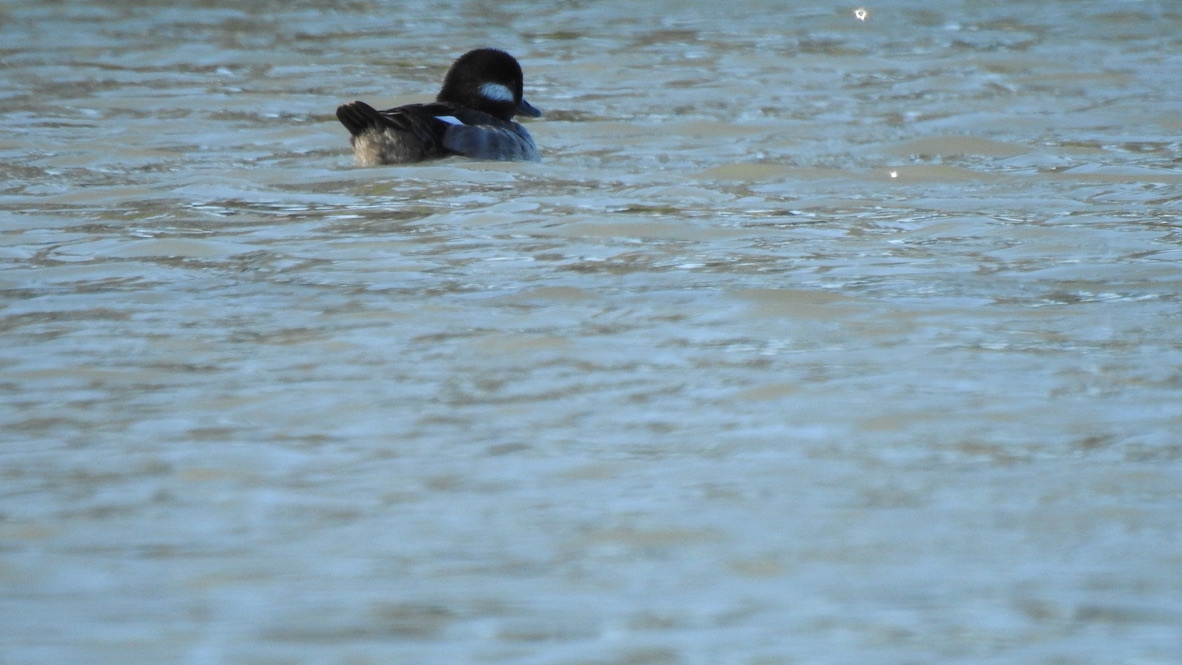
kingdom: Animalia
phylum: Chordata
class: Aves
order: Anseriformes
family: Anatidae
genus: Bucephala
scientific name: Bucephala albeola
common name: Bufflehead
